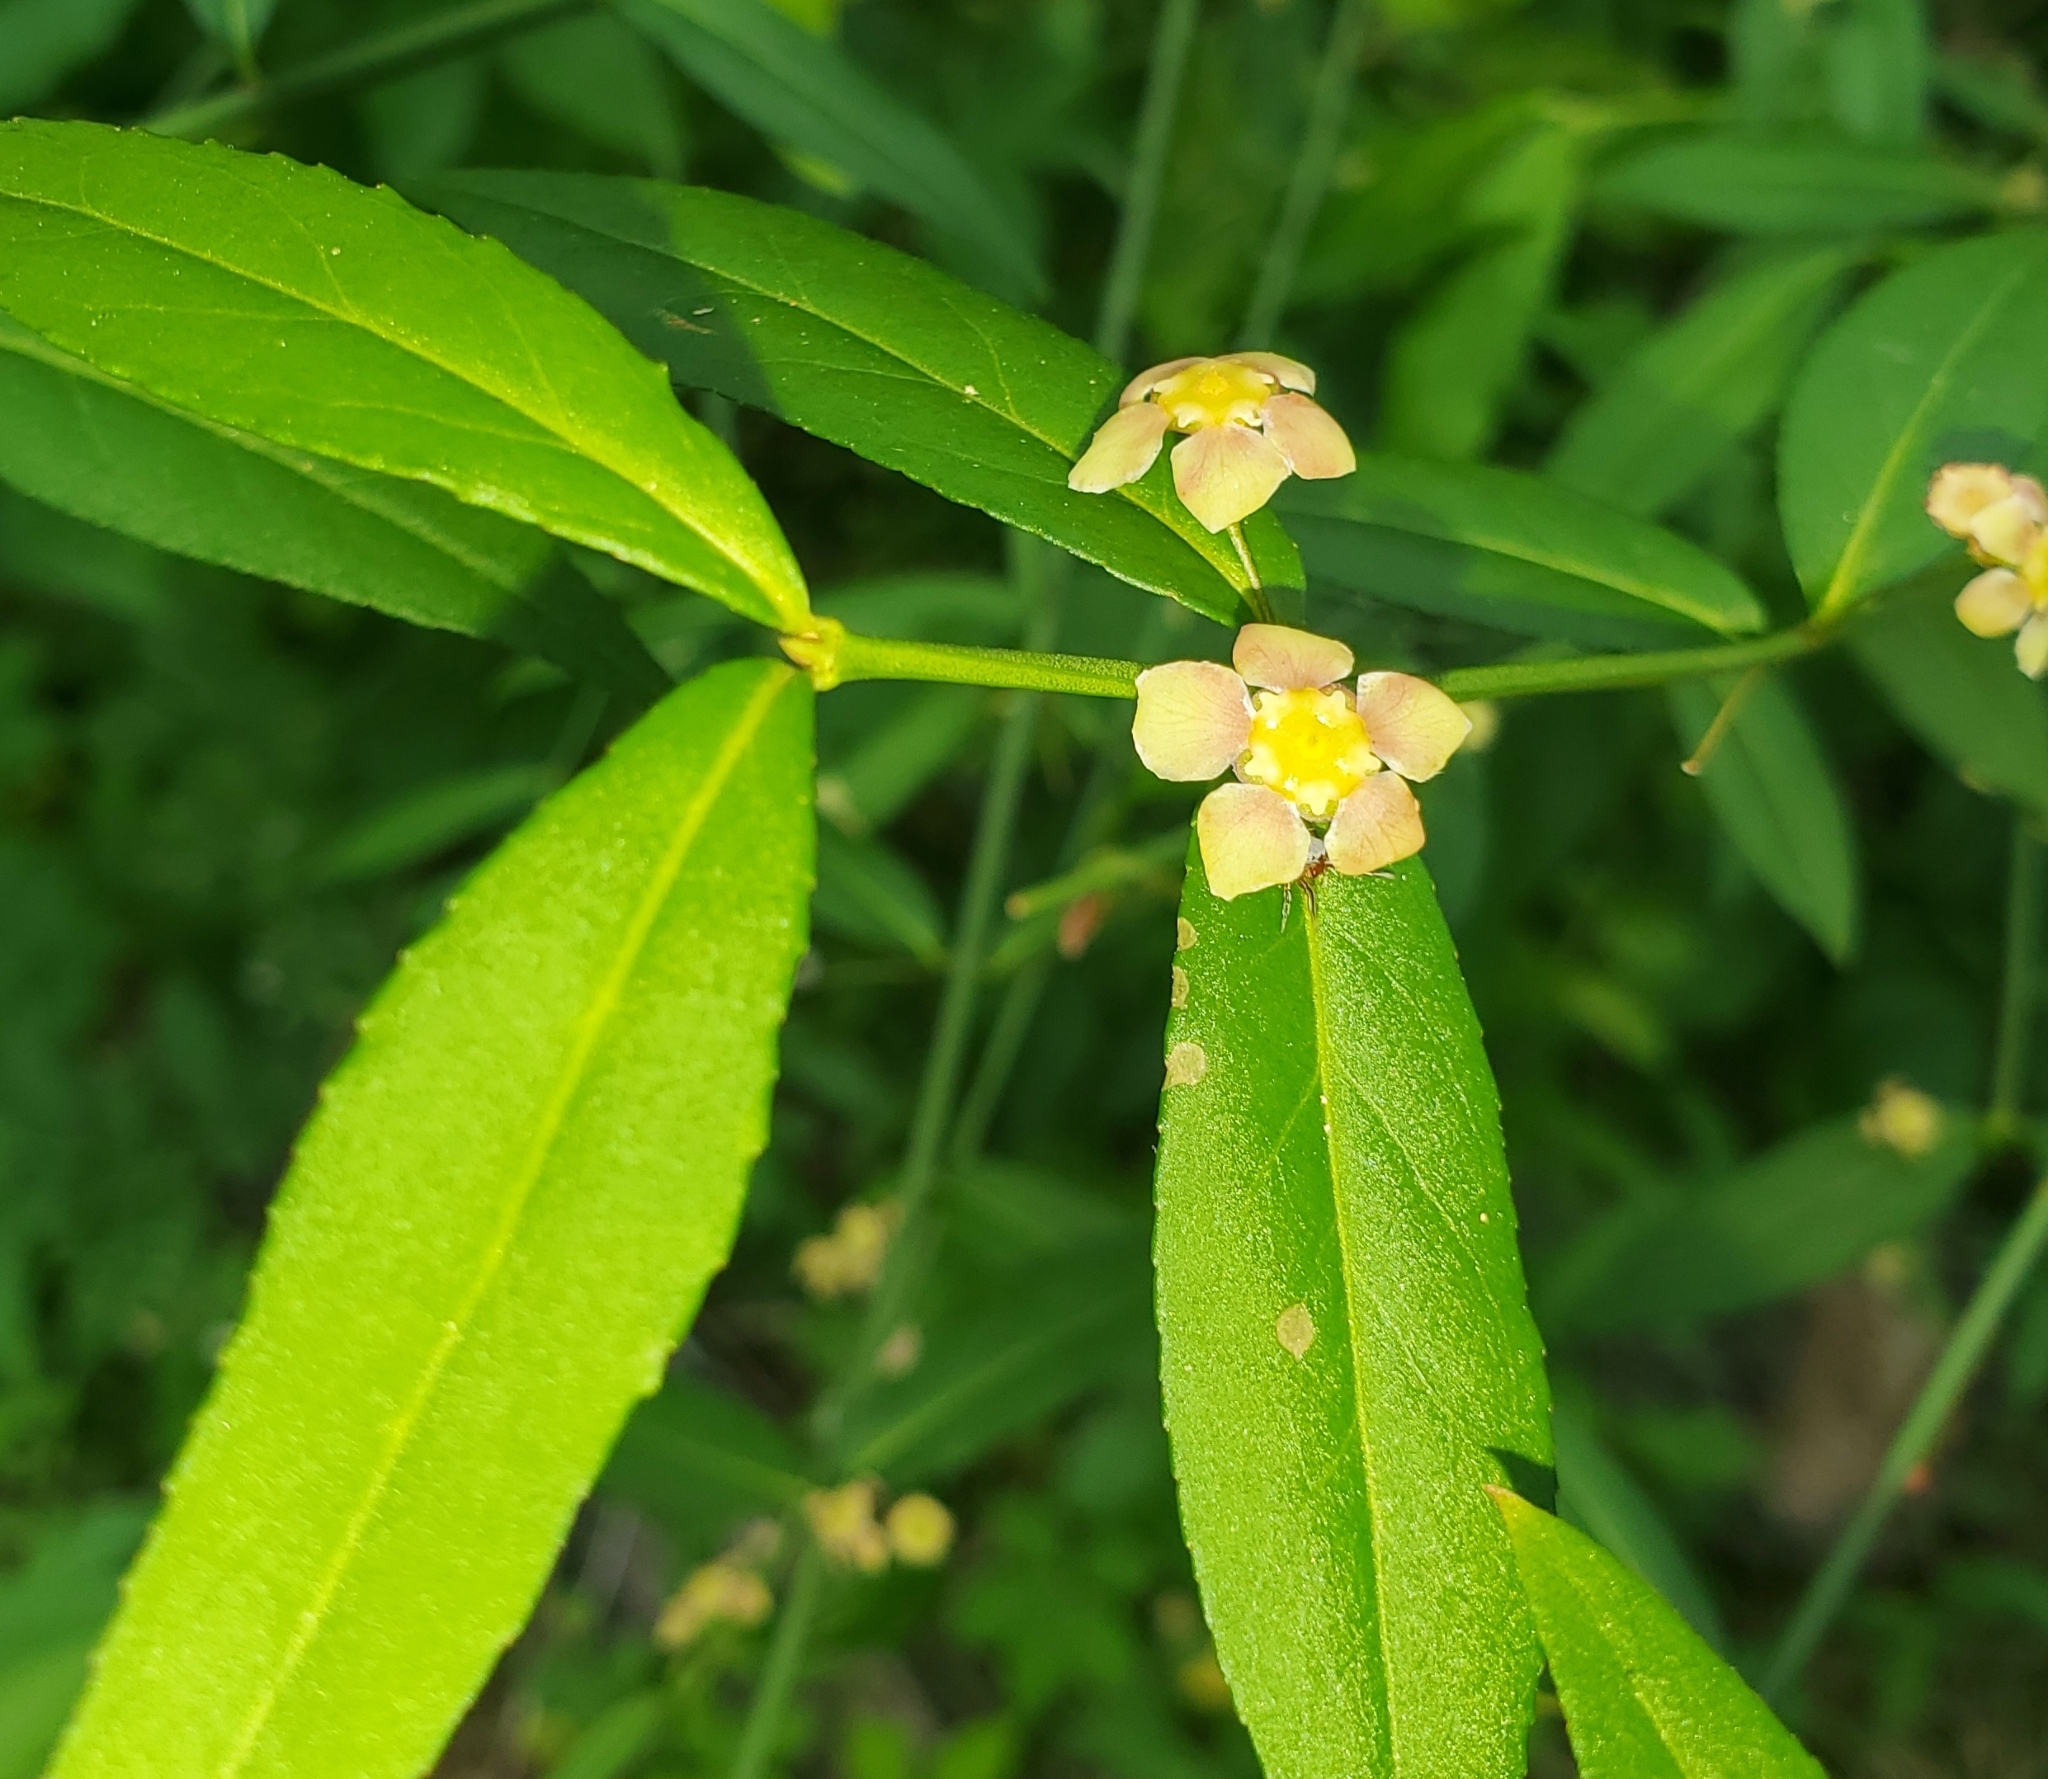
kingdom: Plantae
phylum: Tracheophyta
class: Magnoliopsida
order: Celastrales
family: Celastraceae
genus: Euonymus
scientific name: Euonymus americanus
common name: Bursting-heart
